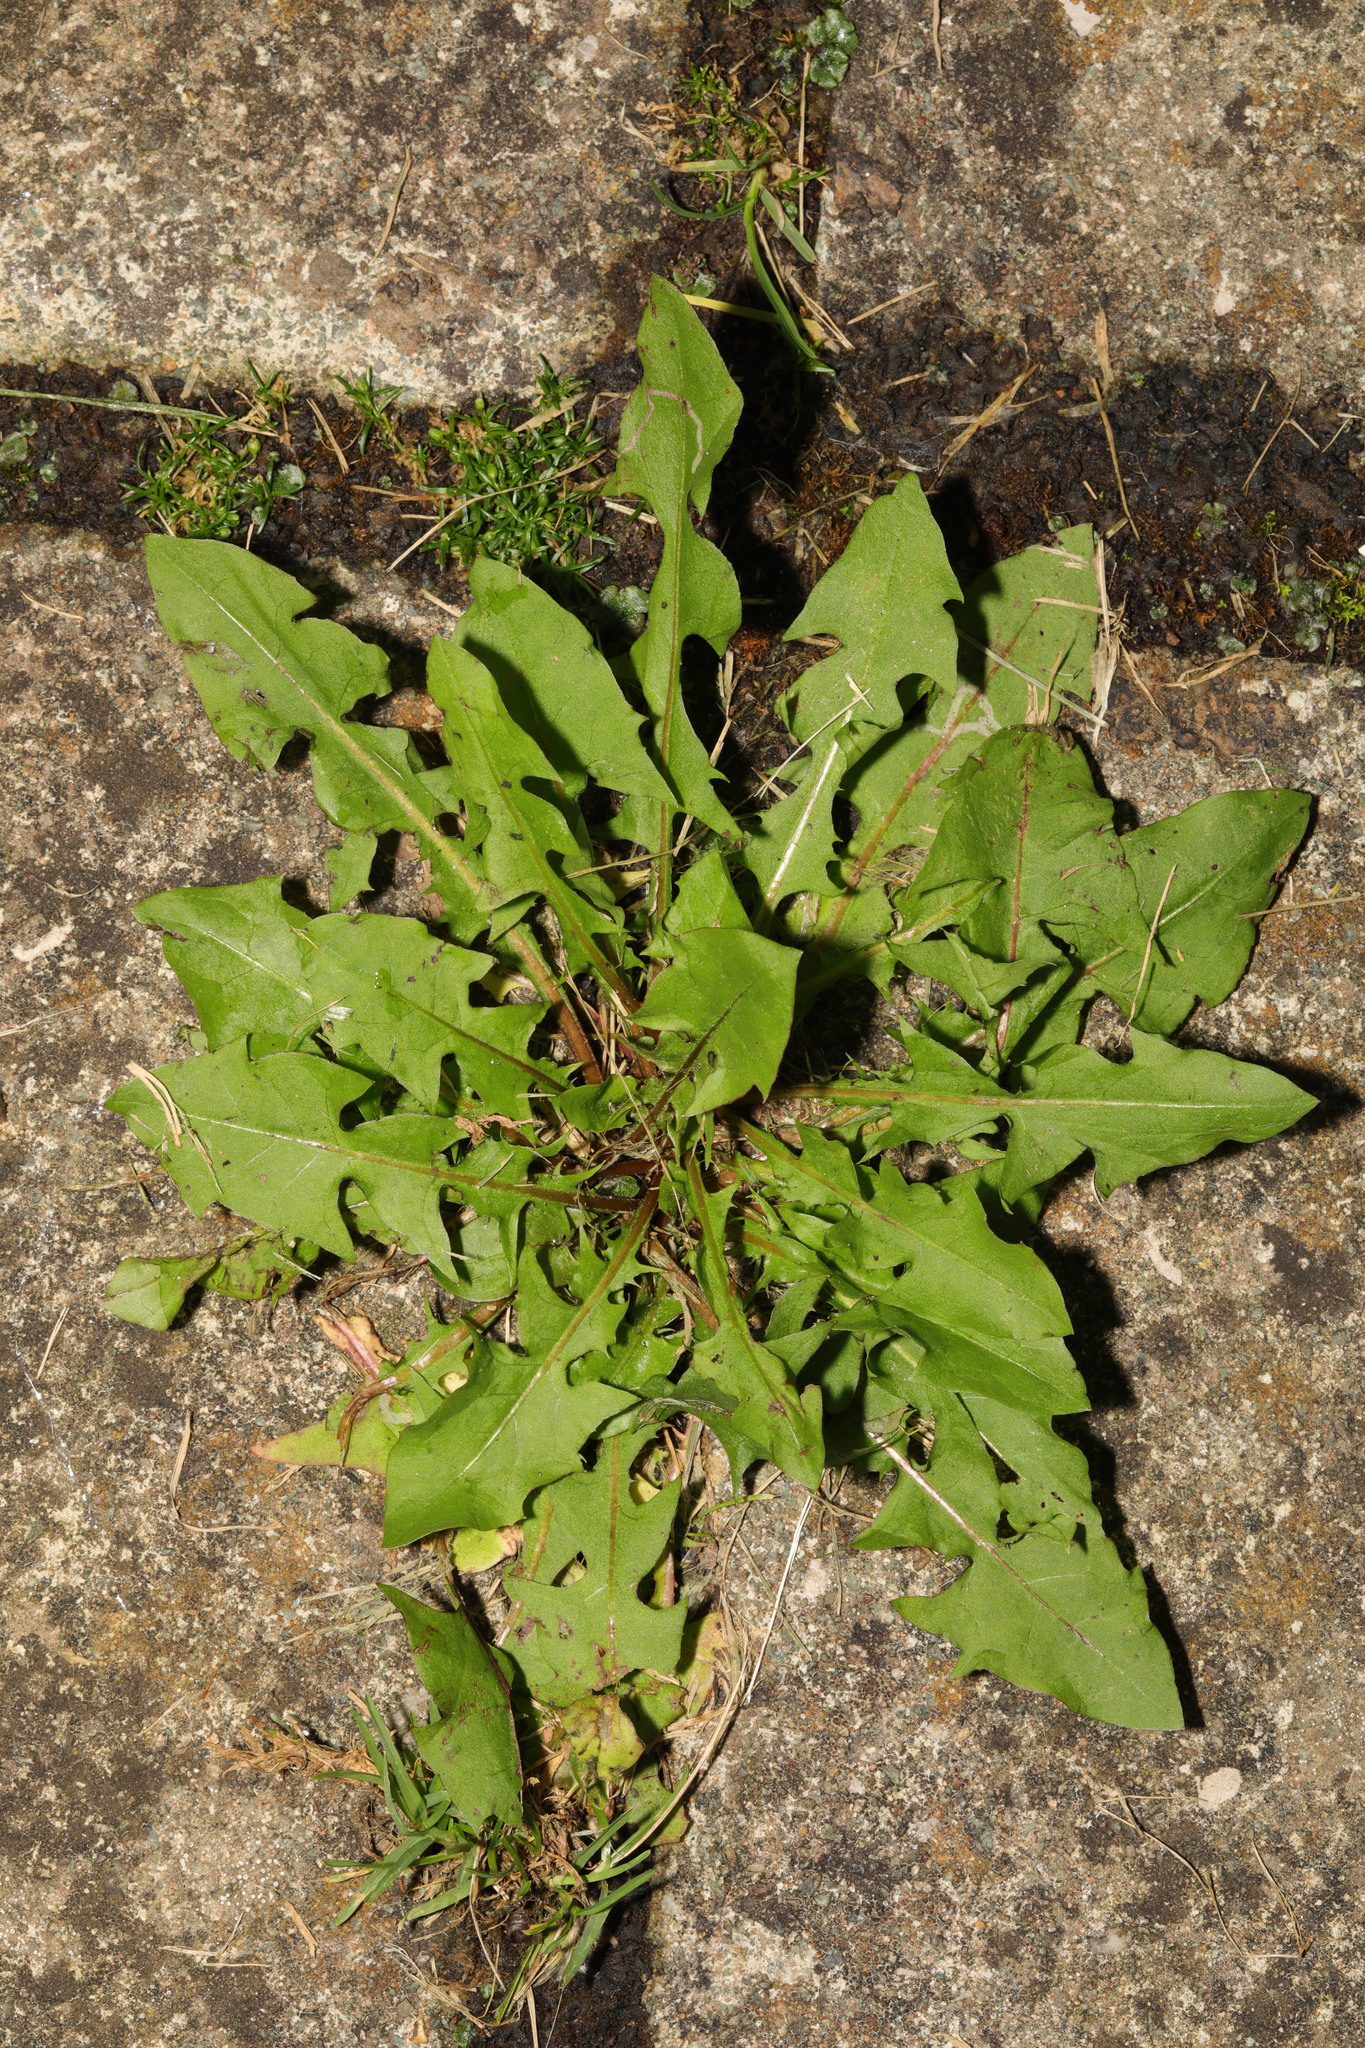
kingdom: Plantae
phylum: Tracheophyta
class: Magnoliopsida
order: Asterales
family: Asteraceae
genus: Taraxacum
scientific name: Taraxacum officinale
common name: Common dandelion
